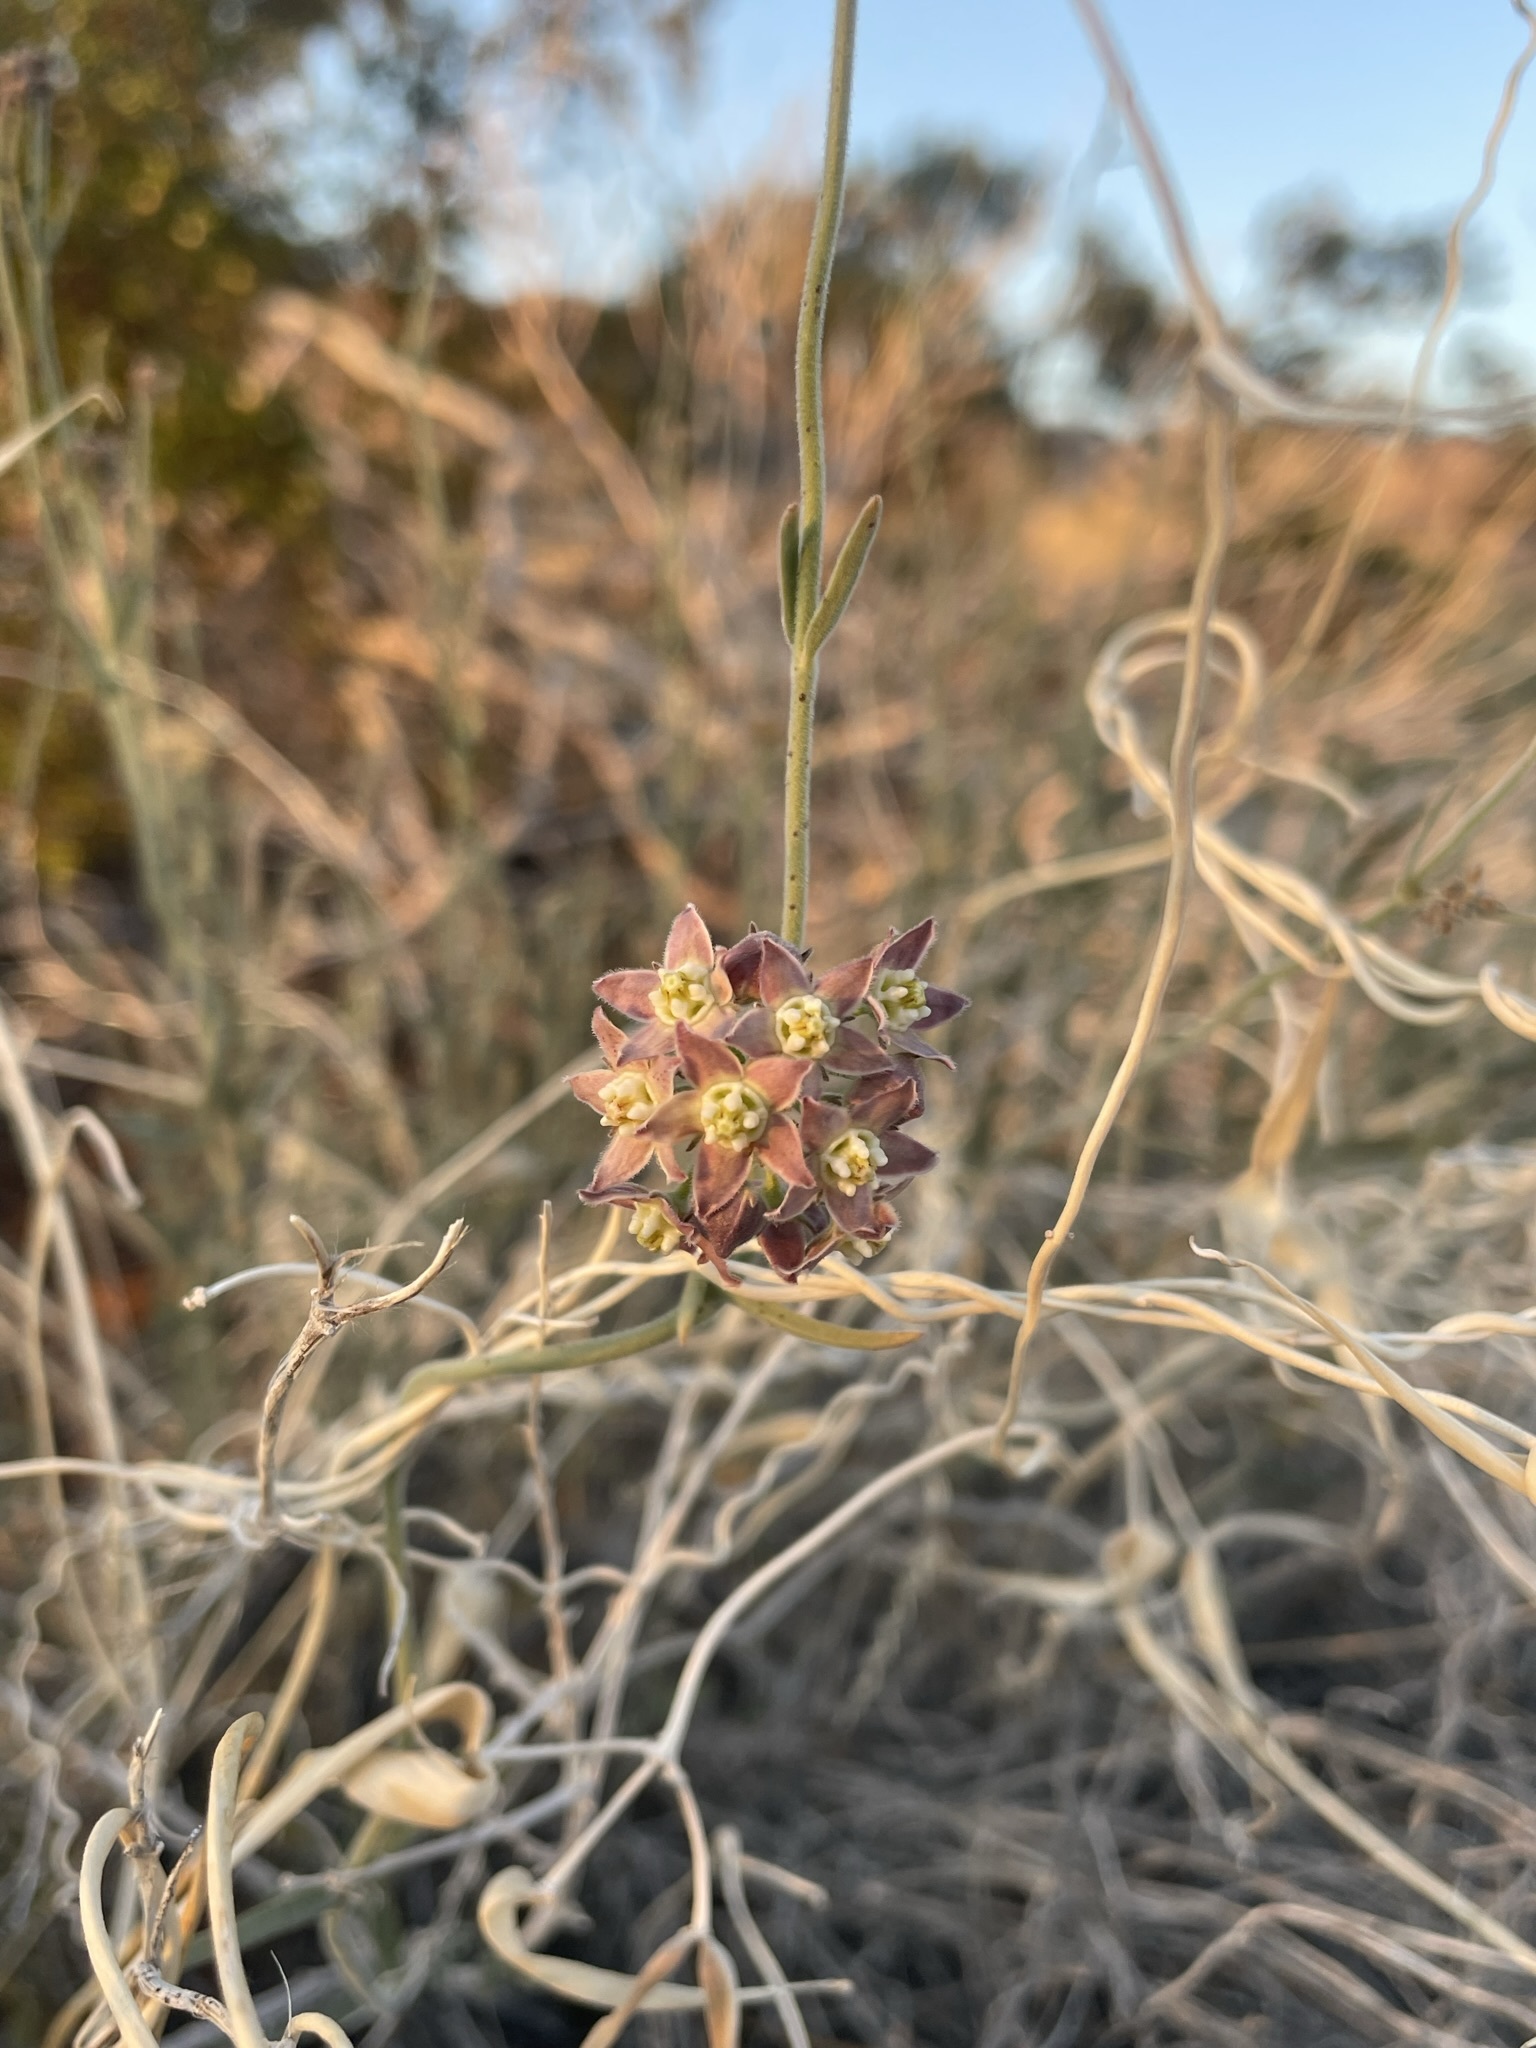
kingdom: Plantae
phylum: Tracheophyta
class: Magnoliopsida
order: Gentianales
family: Apocynaceae
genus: Funastrum
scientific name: Funastrum hirtellum
